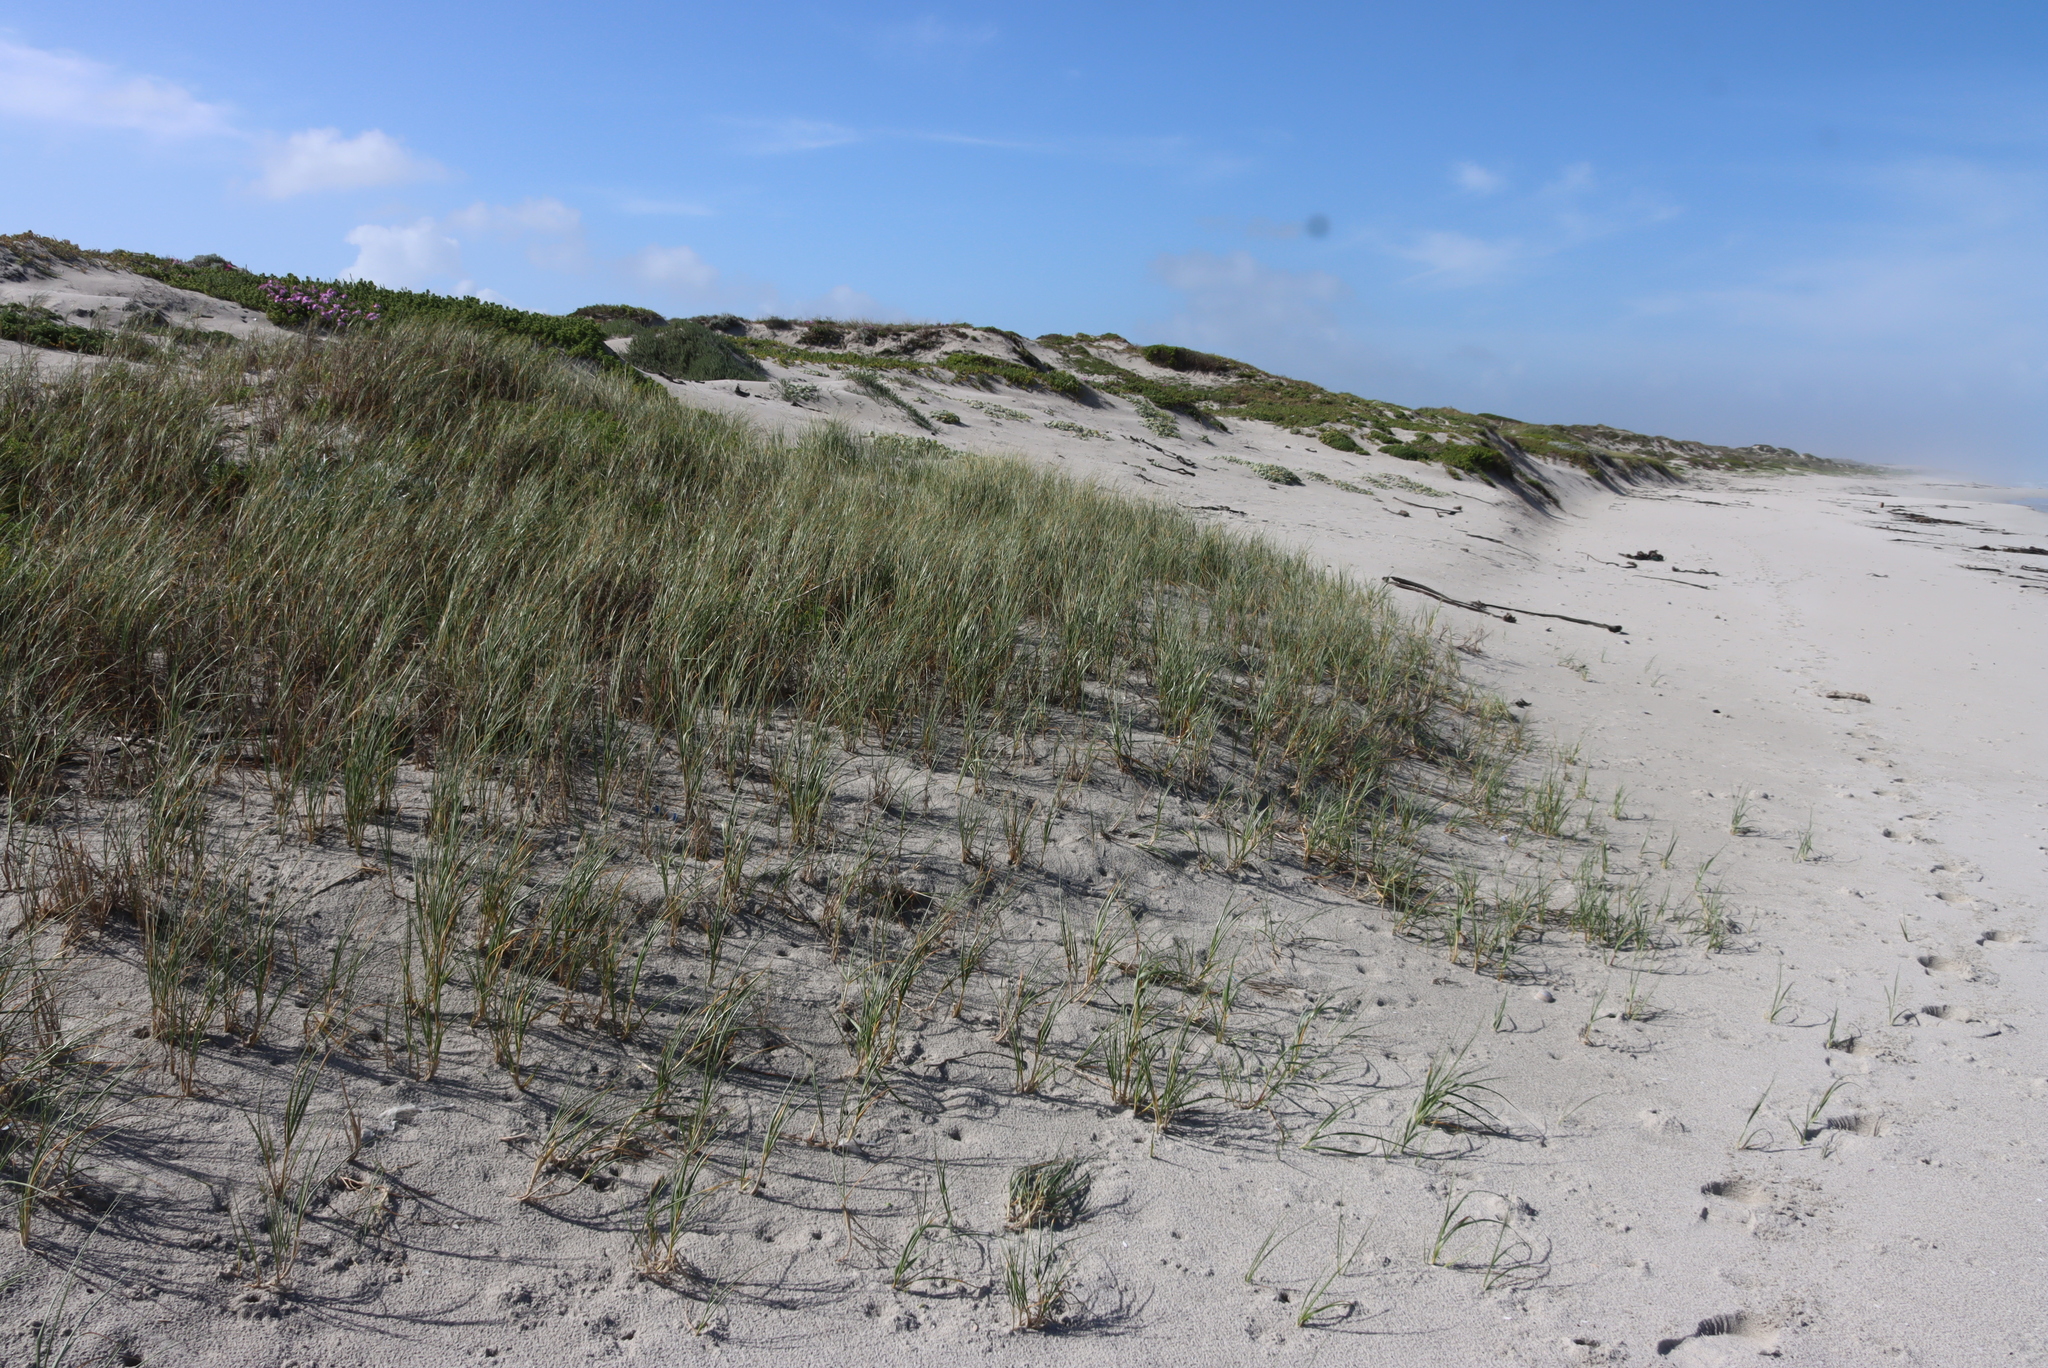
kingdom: Plantae
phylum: Tracheophyta
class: Liliopsida
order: Poales
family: Poaceae
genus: Thinopyrum
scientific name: Thinopyrum distichum
